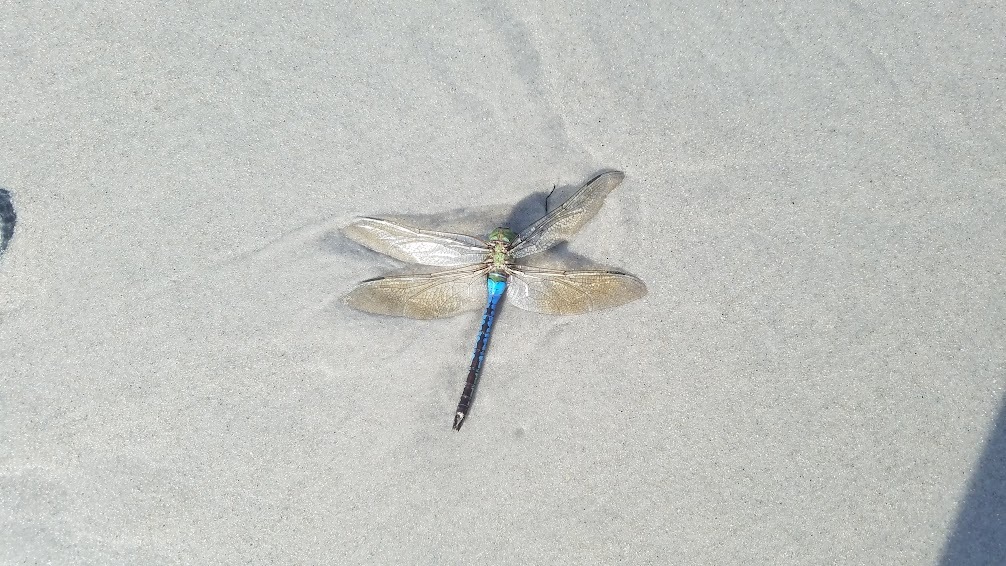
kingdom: Animalia
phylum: Arthropoda
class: Insecta
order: Odonata
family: Aeshnidae
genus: Anax
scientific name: Anax junius
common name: Common green darner
